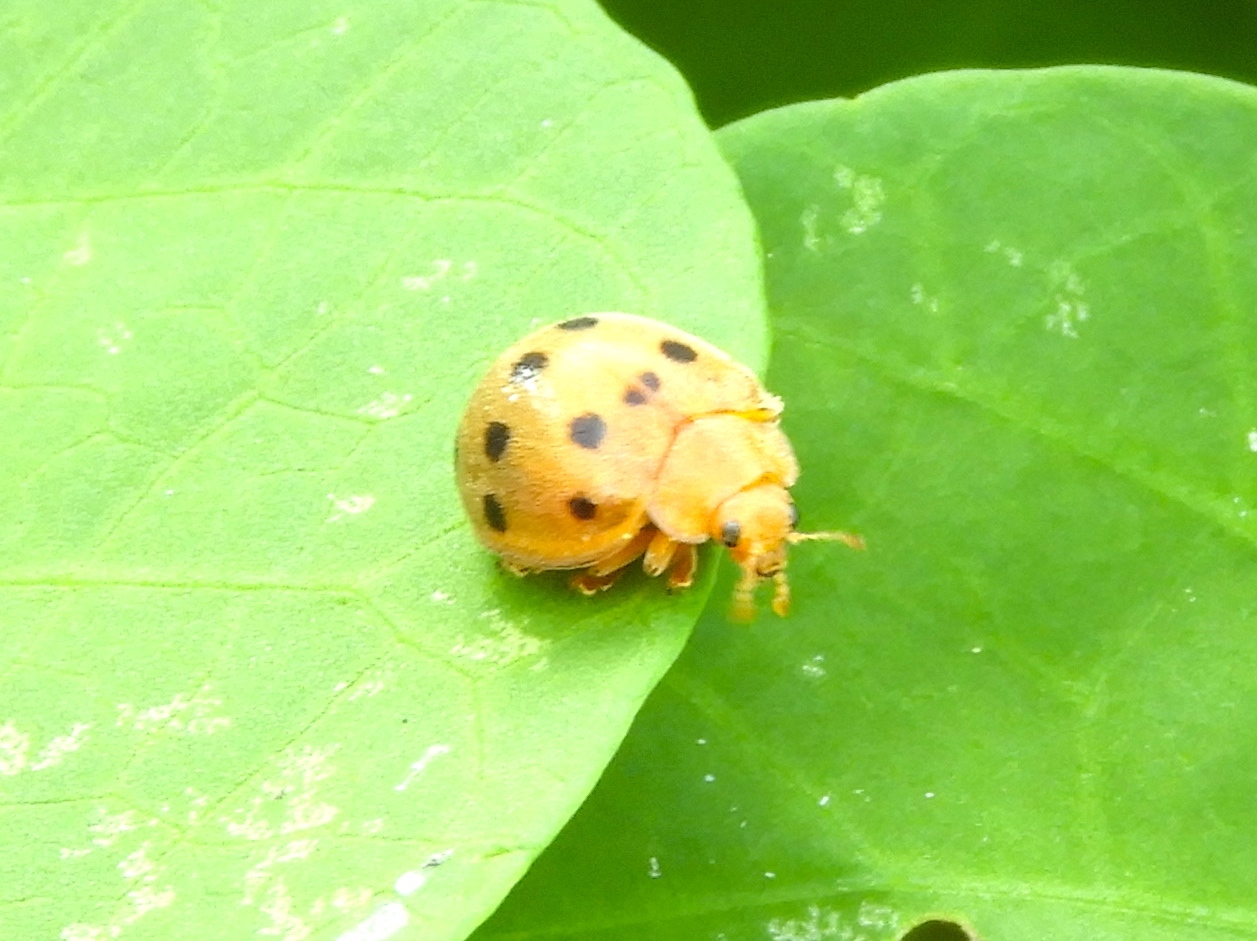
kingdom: Animalia
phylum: Arthropoda
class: Insecta
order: Coleoptera
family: Coccinellidae
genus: Epilachna
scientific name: Epilachna tredecimnotata
